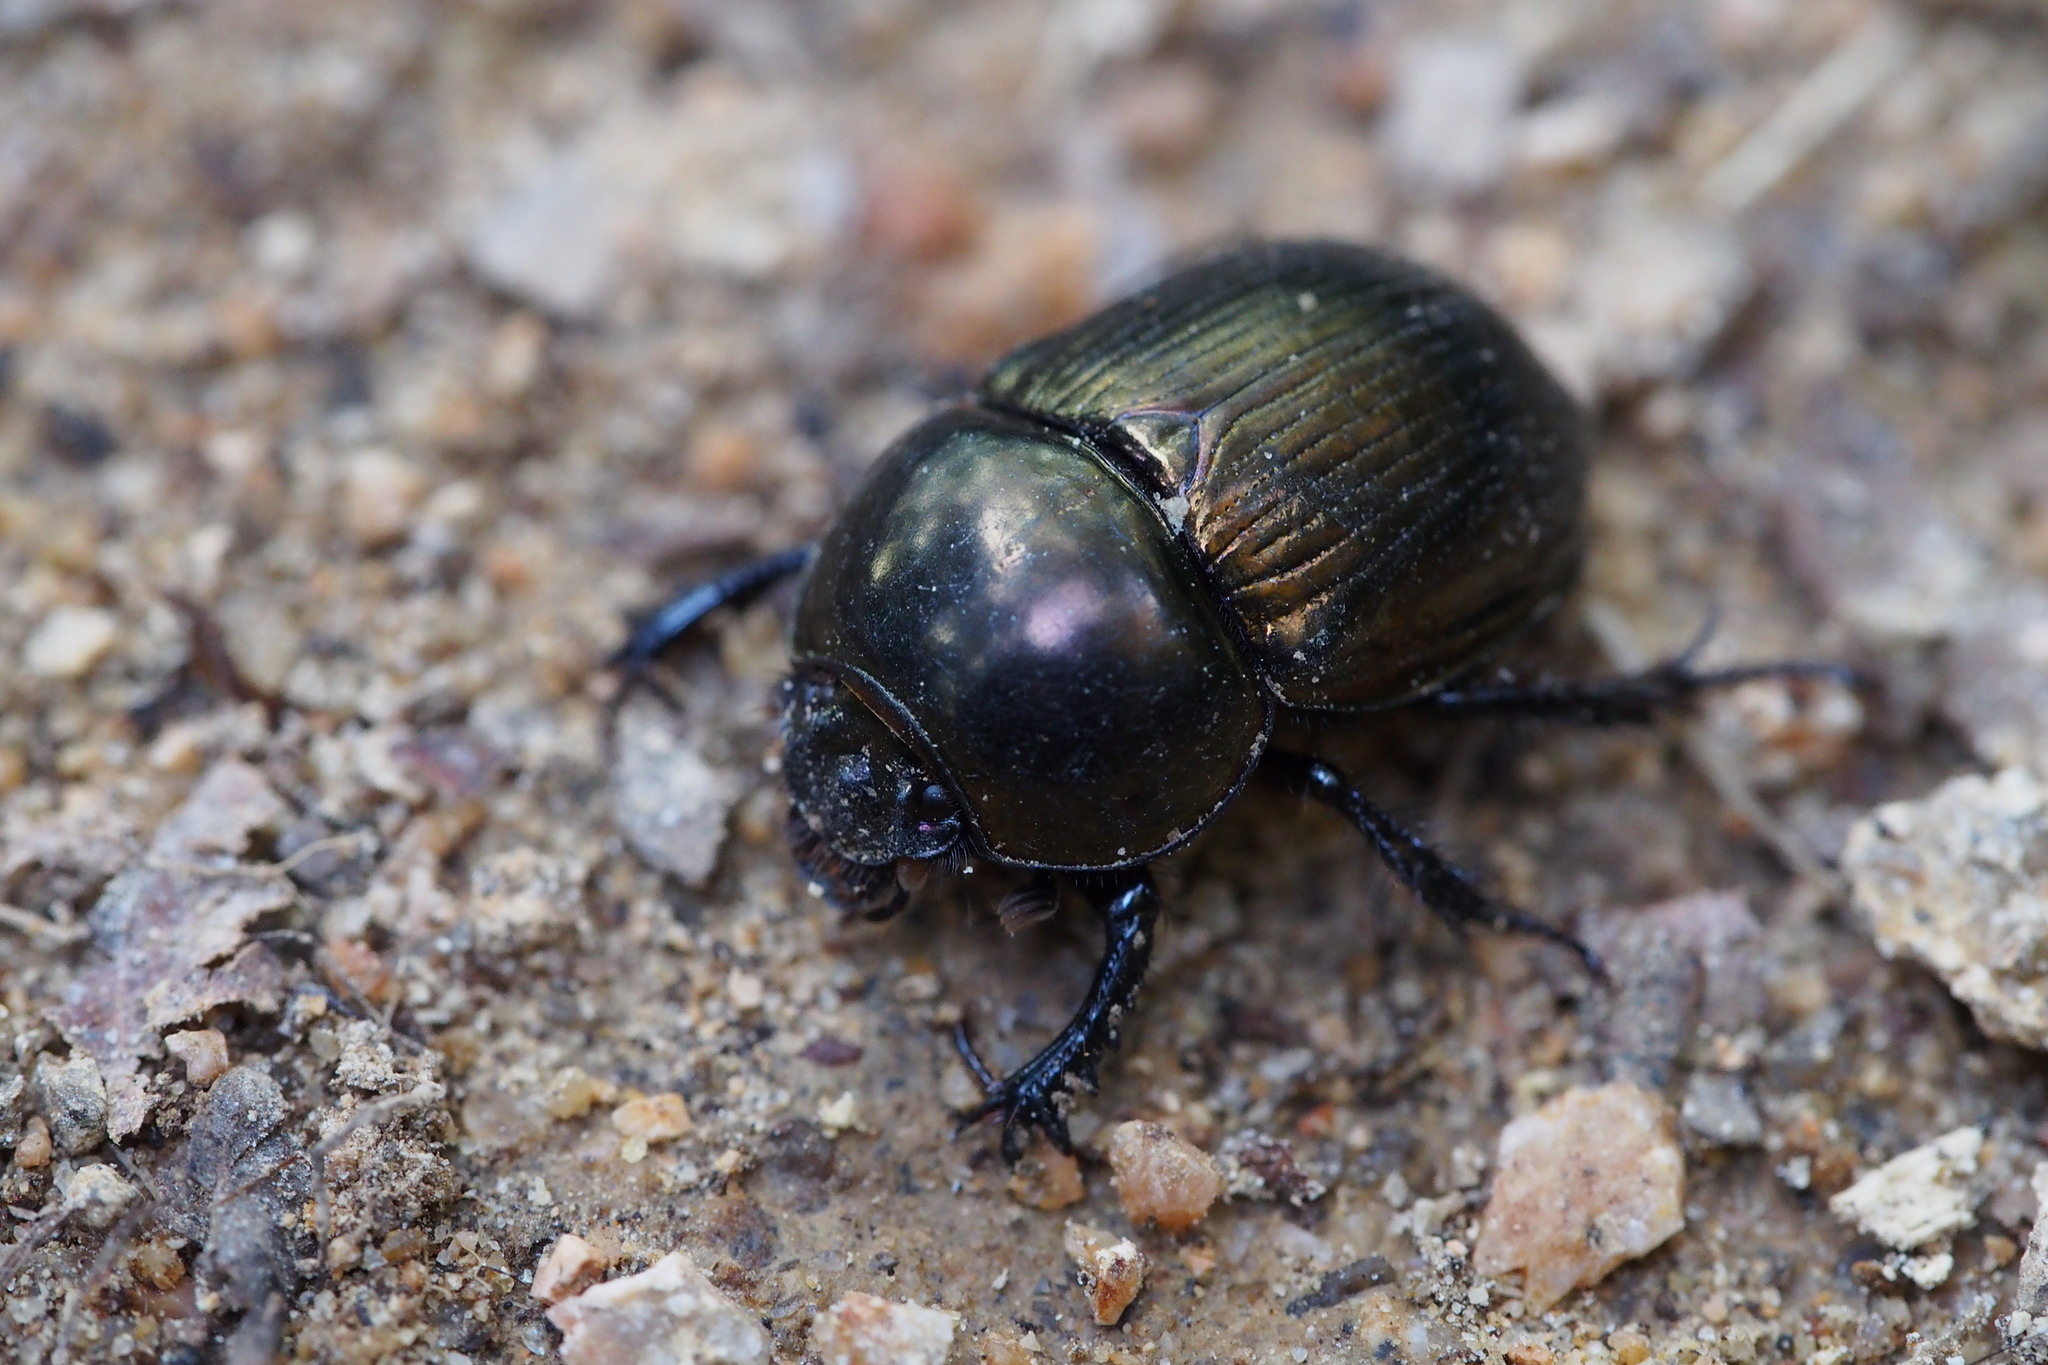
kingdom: Animalia
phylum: Arthropoda
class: Insecta
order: Coleoptera
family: Geotrupidae
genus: Phelotrupes
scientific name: Phelotrupes laevistriatus
